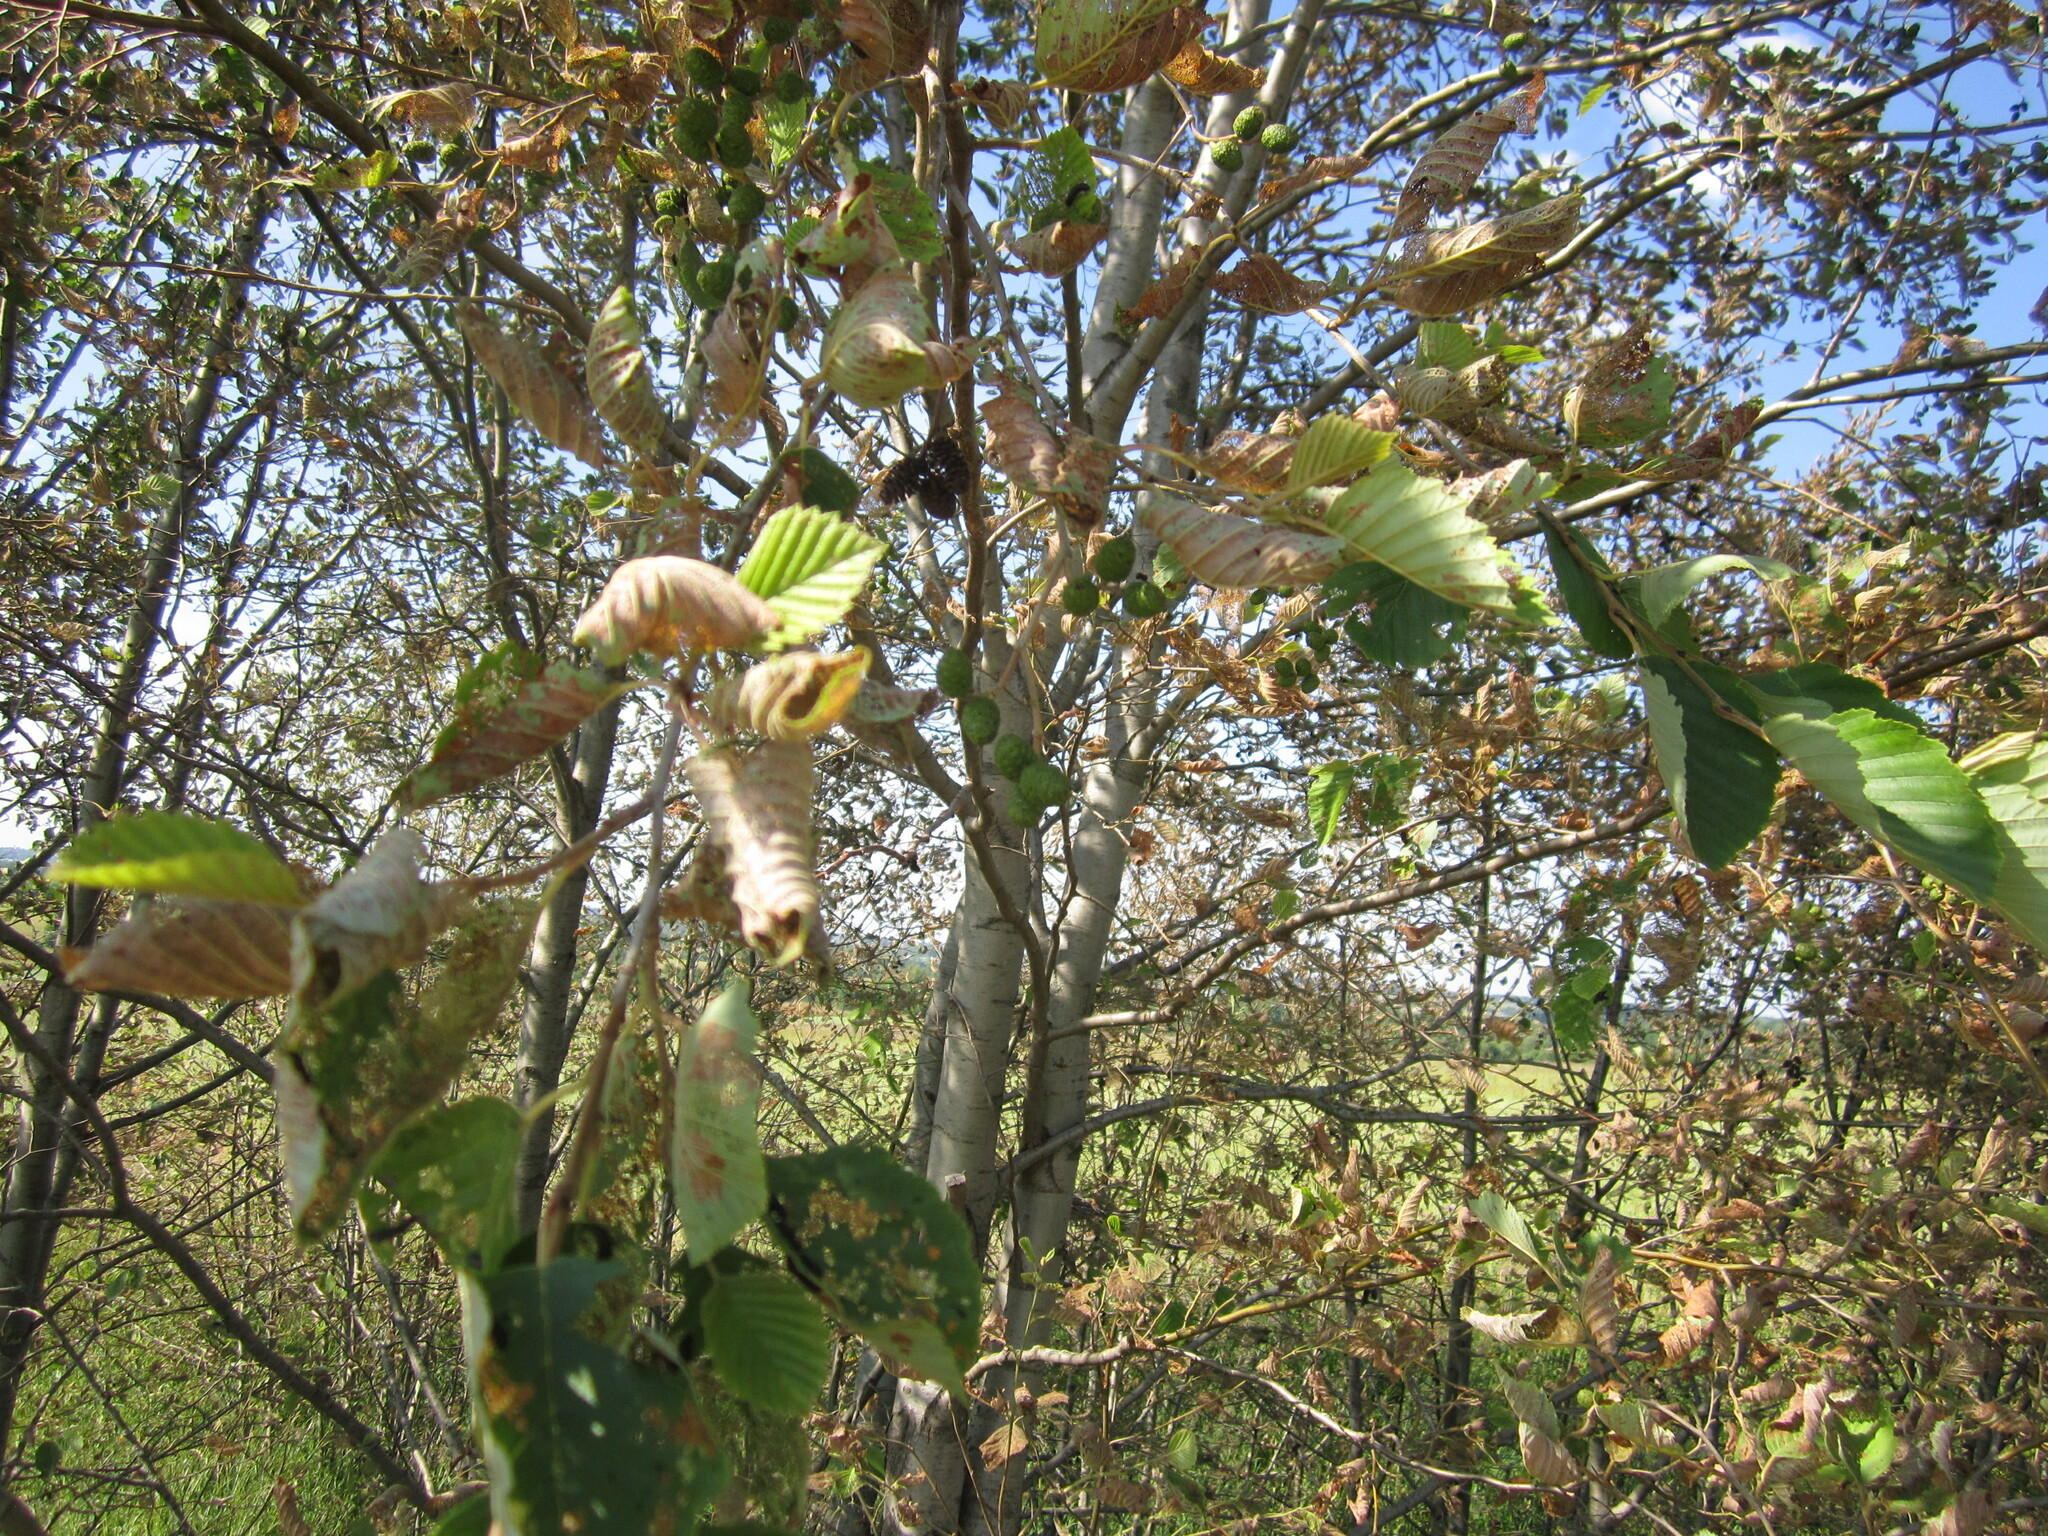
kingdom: Plantae
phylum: Tracheophyta
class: Magnoliopsida
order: Fagales
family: Betulaceae
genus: Alnus
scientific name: Alnus incana
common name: Grey alder
